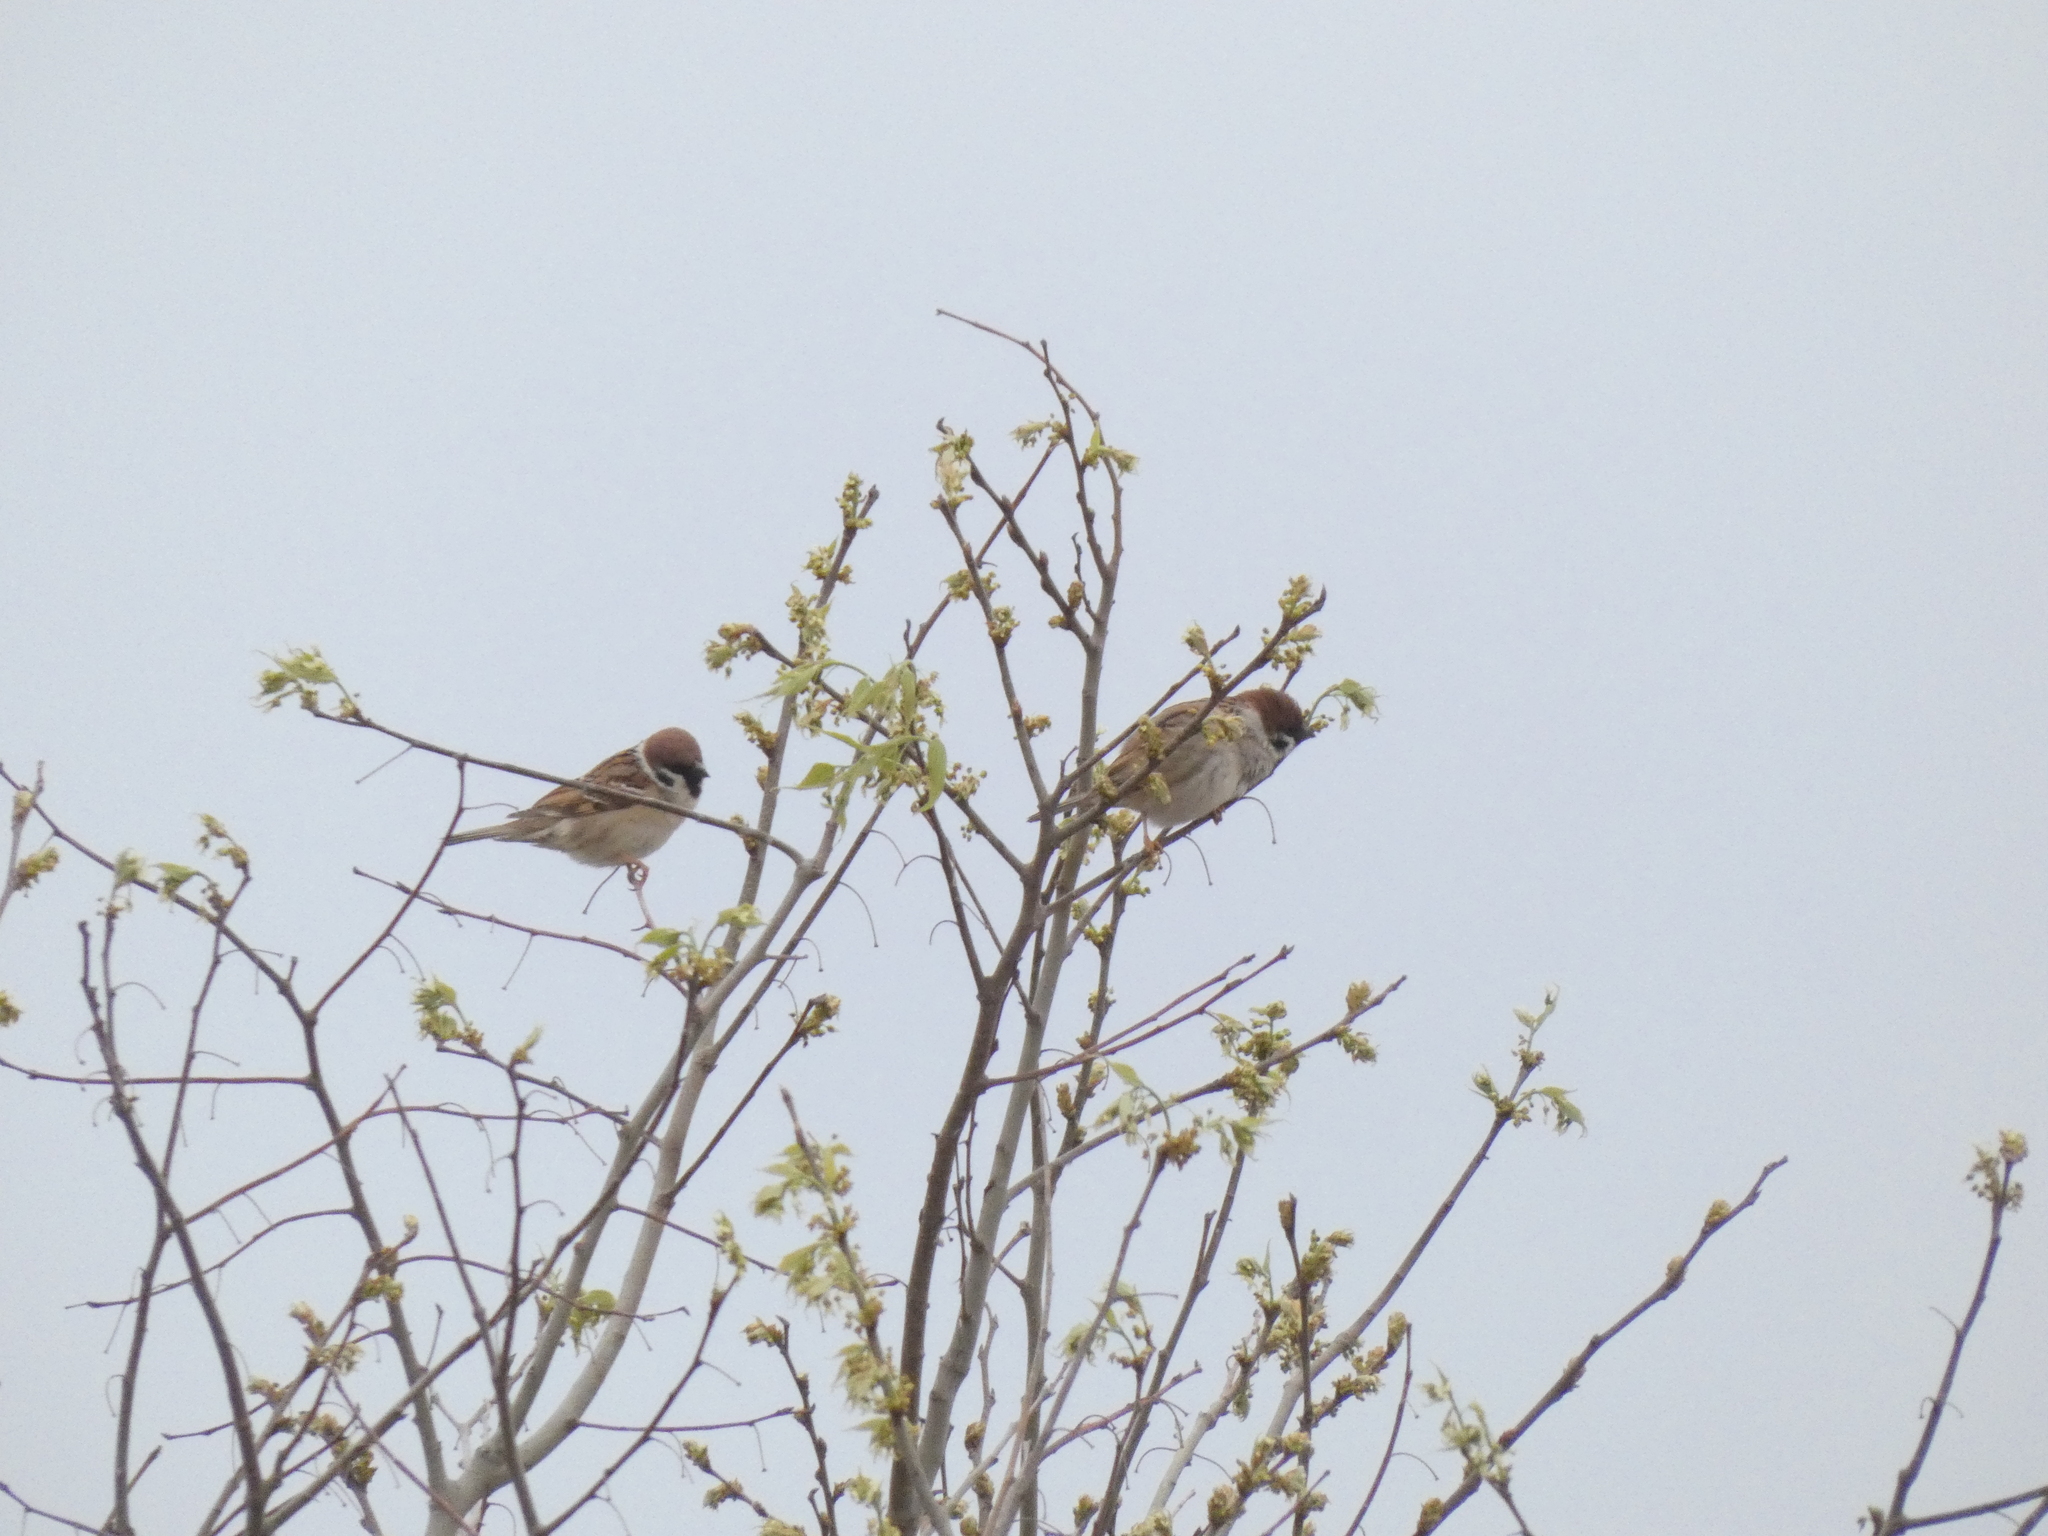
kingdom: Animalia
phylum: Chordata
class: Aves
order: Passeriformes
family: Passeridae
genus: Passer
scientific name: Passer montanus
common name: Eurasian tree sparrow
